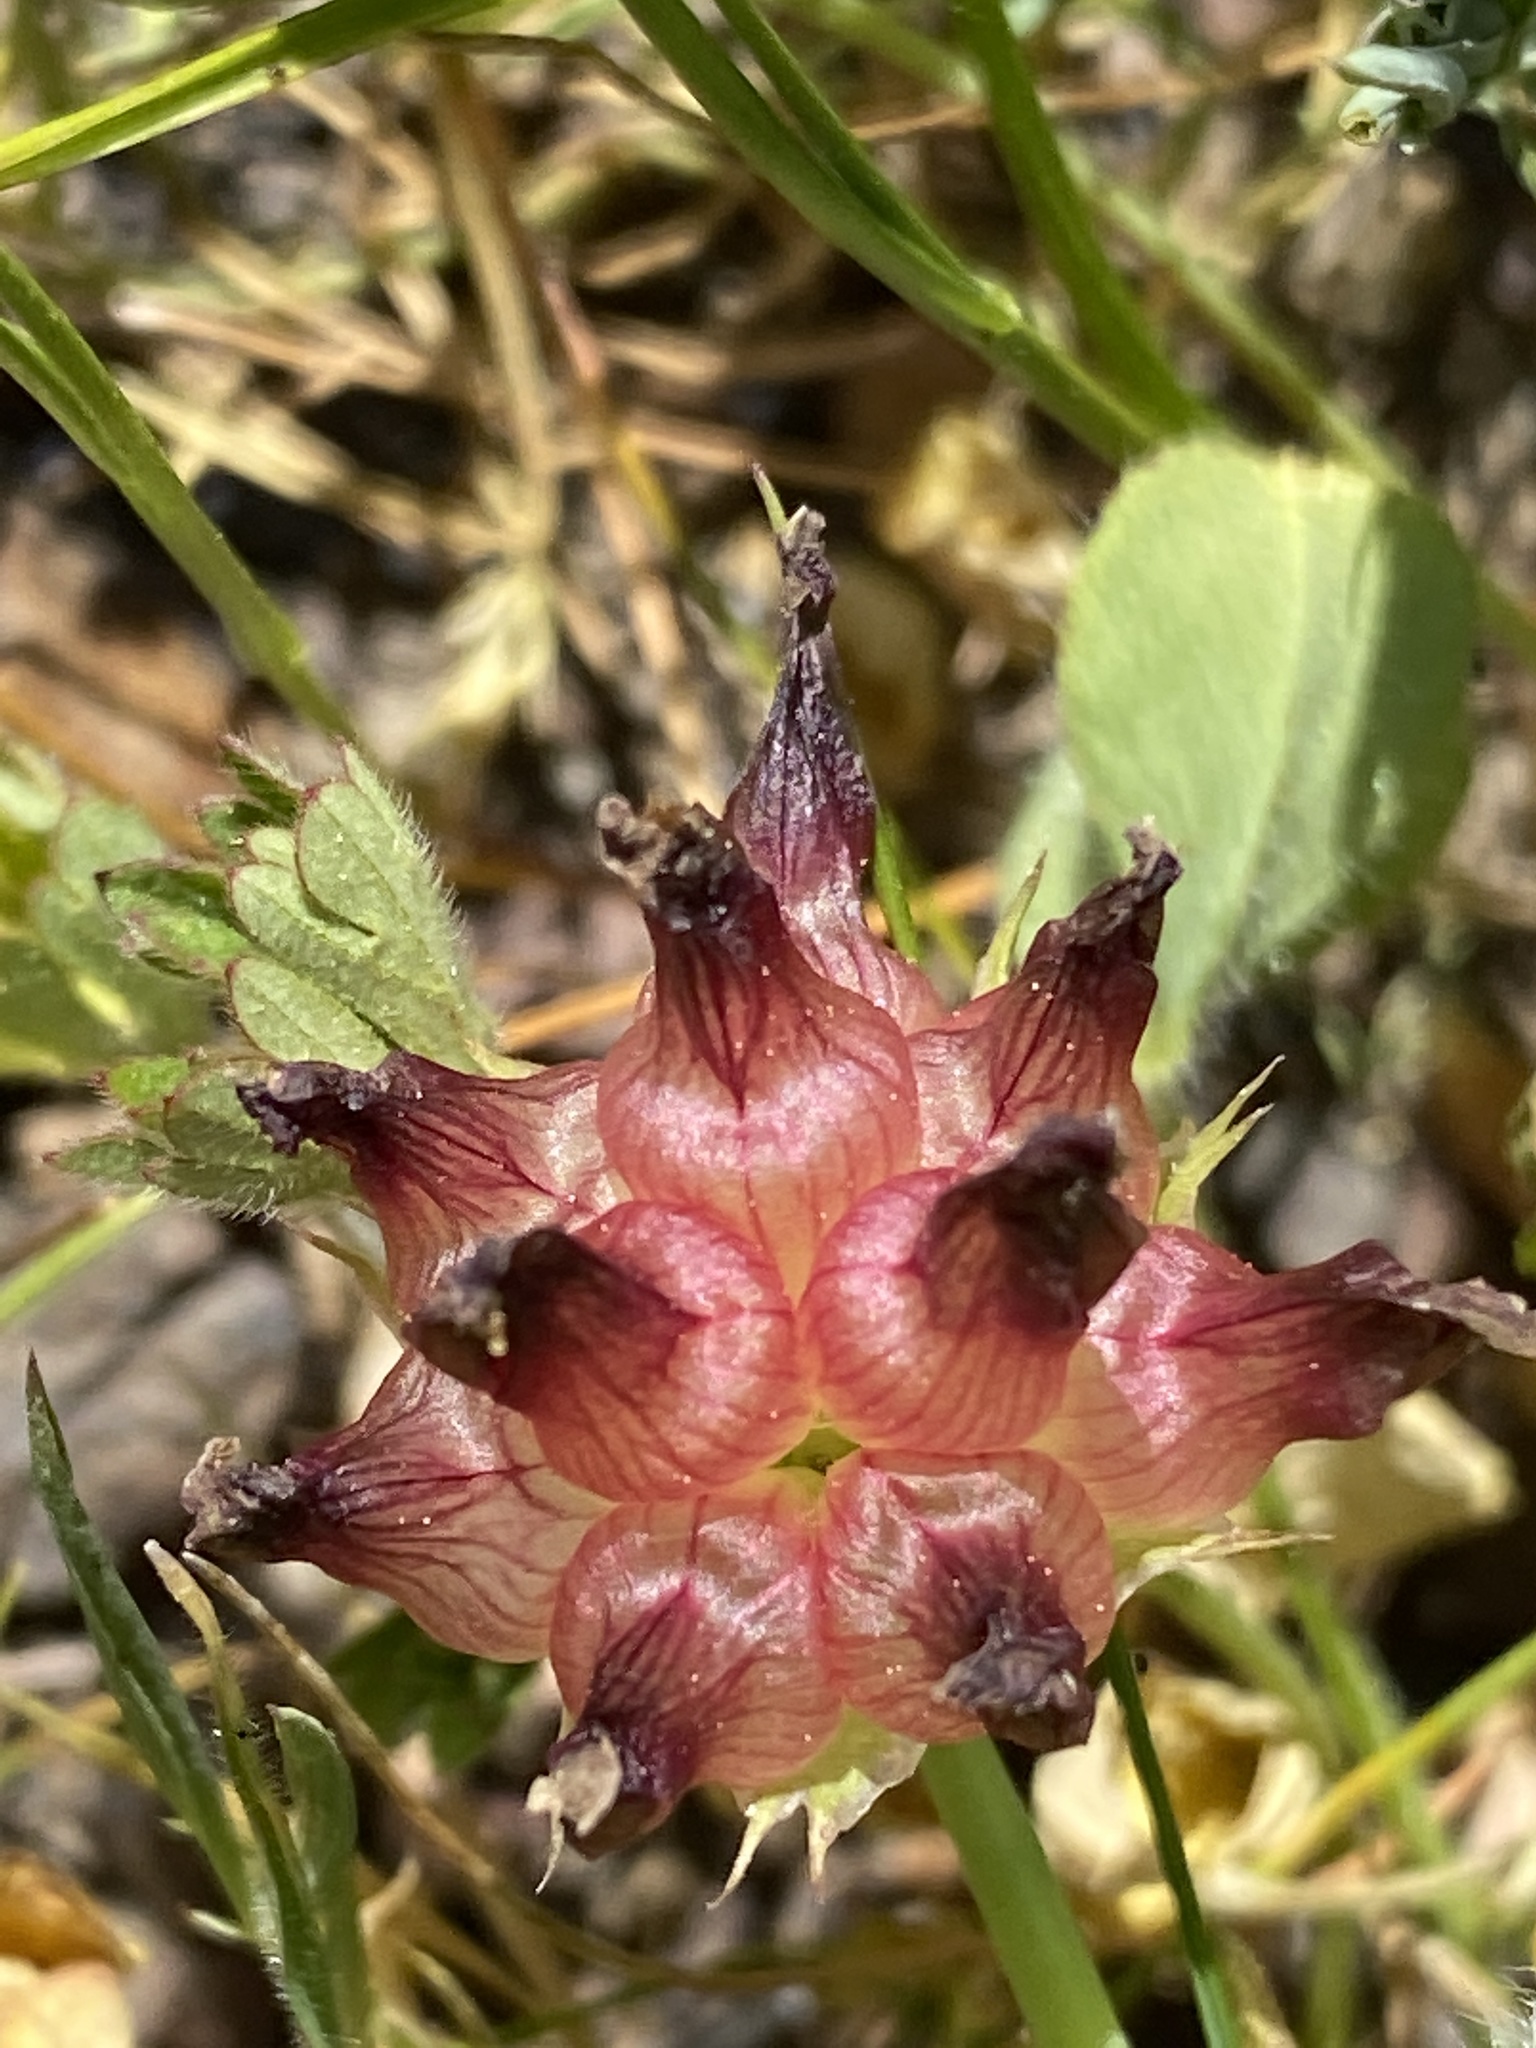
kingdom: Plantae
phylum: Tracheophyta
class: Magnoliopsida
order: Fabales
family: Fabaceae
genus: Trifolium
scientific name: Trifolium fucatum
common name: Puff clover
